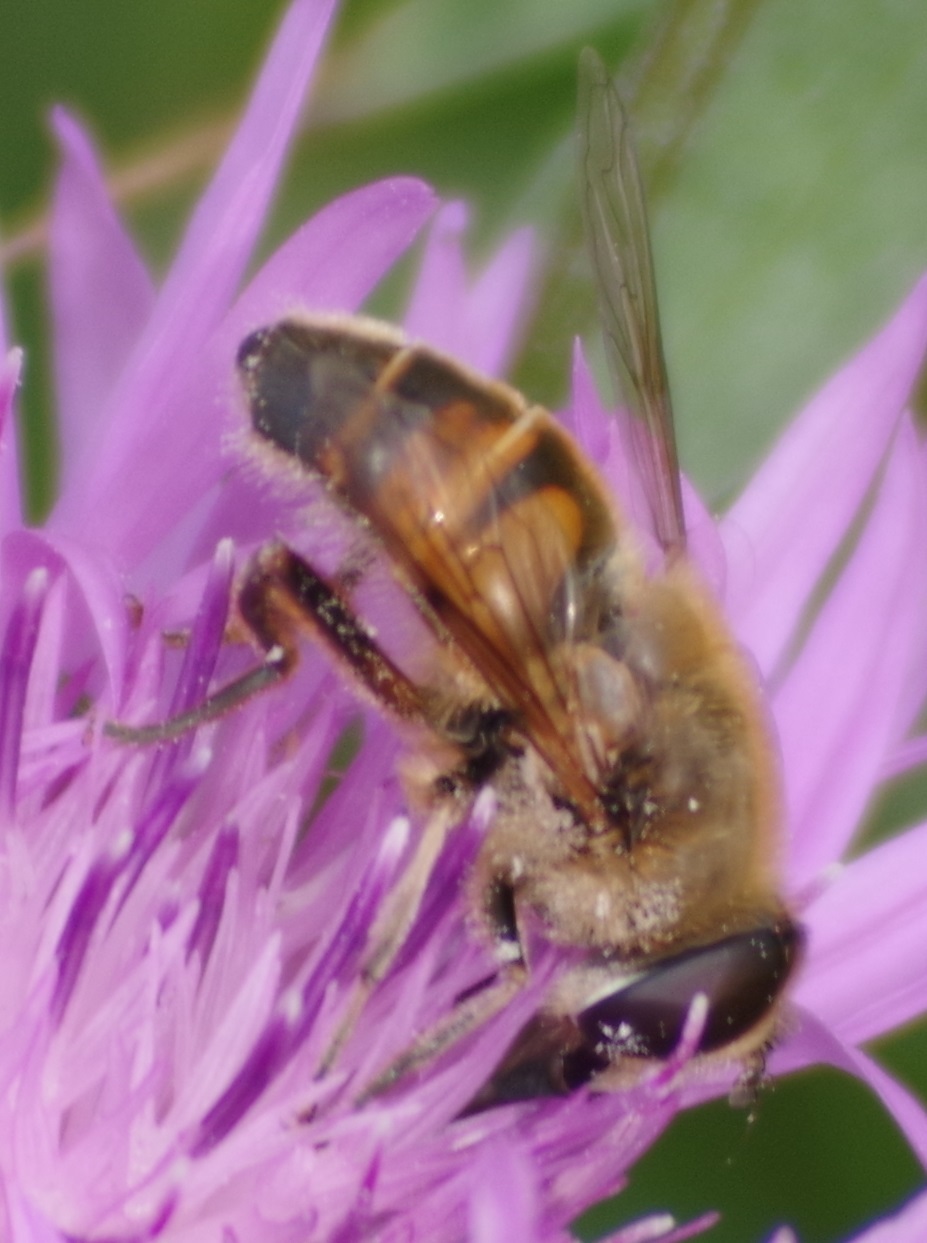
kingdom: Animalia
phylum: Arthropoda
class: Insecta
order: Diptera
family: Syrphidae
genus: Eristalis
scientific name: Eristalis tenax
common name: Drone fly
